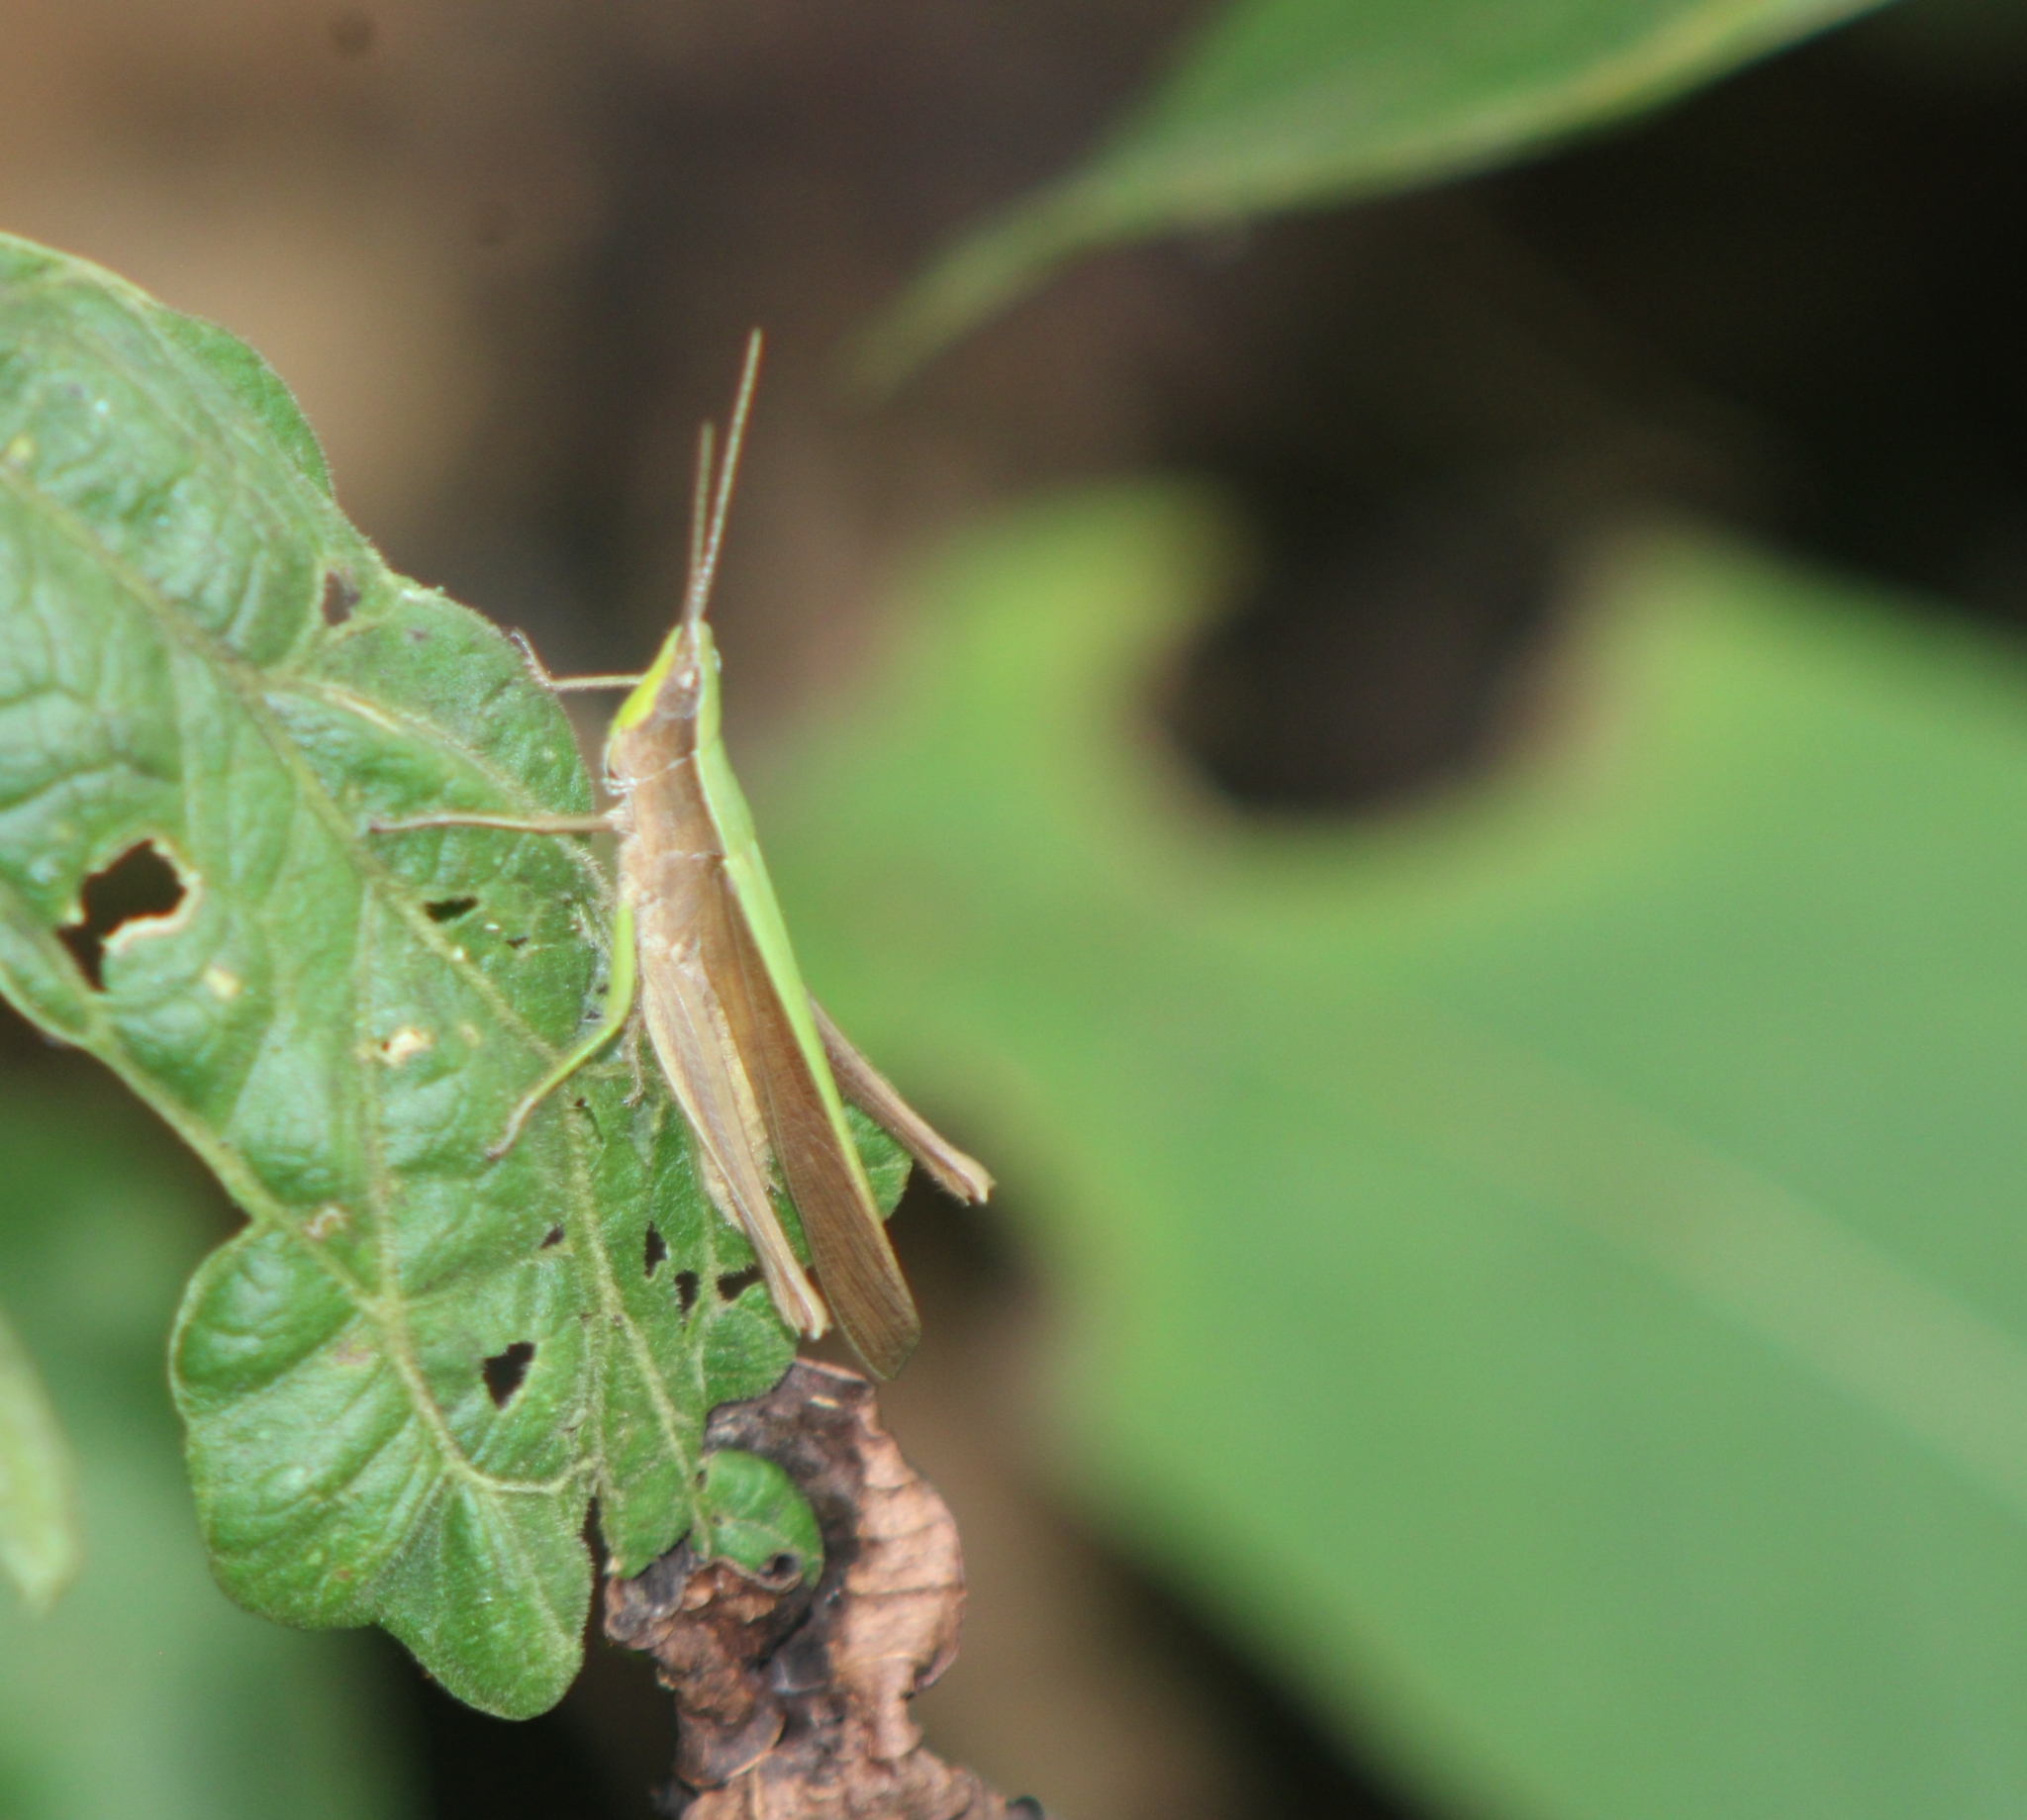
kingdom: Animalia
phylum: Arthropoda
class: Insecta
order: Orthoptera
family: Acrididae
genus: Metaleptea
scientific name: Metaleptea adspersa
